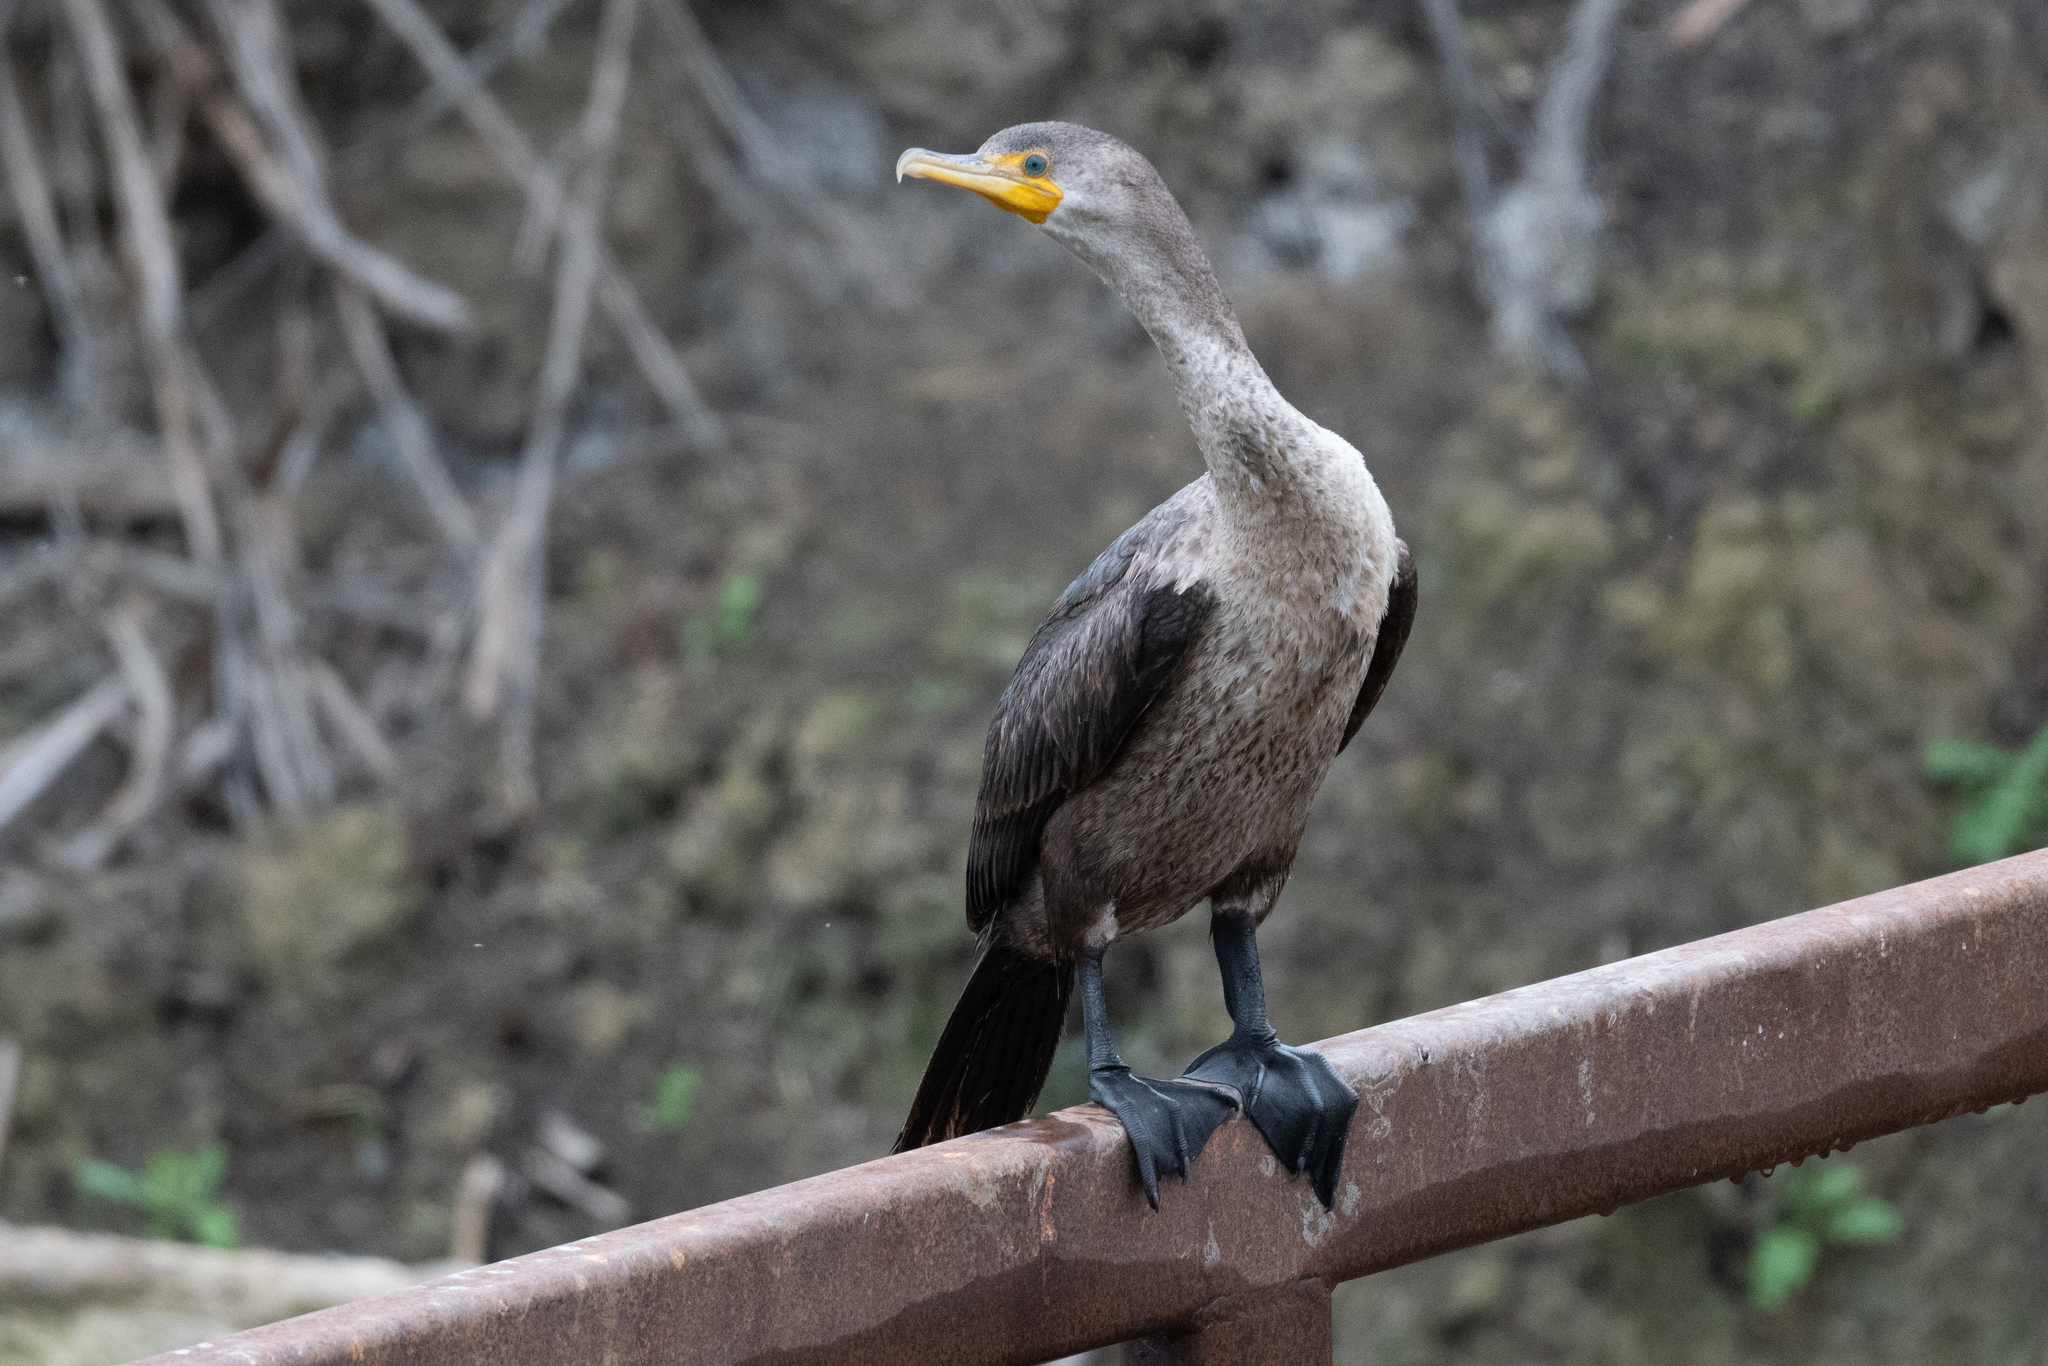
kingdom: Animalia
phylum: Chordata
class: Aves
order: Suliformes
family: Phalacrocoracidae
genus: Phalacrocorax
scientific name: Phalacrocorax auritus
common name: Double-crested cormorant
